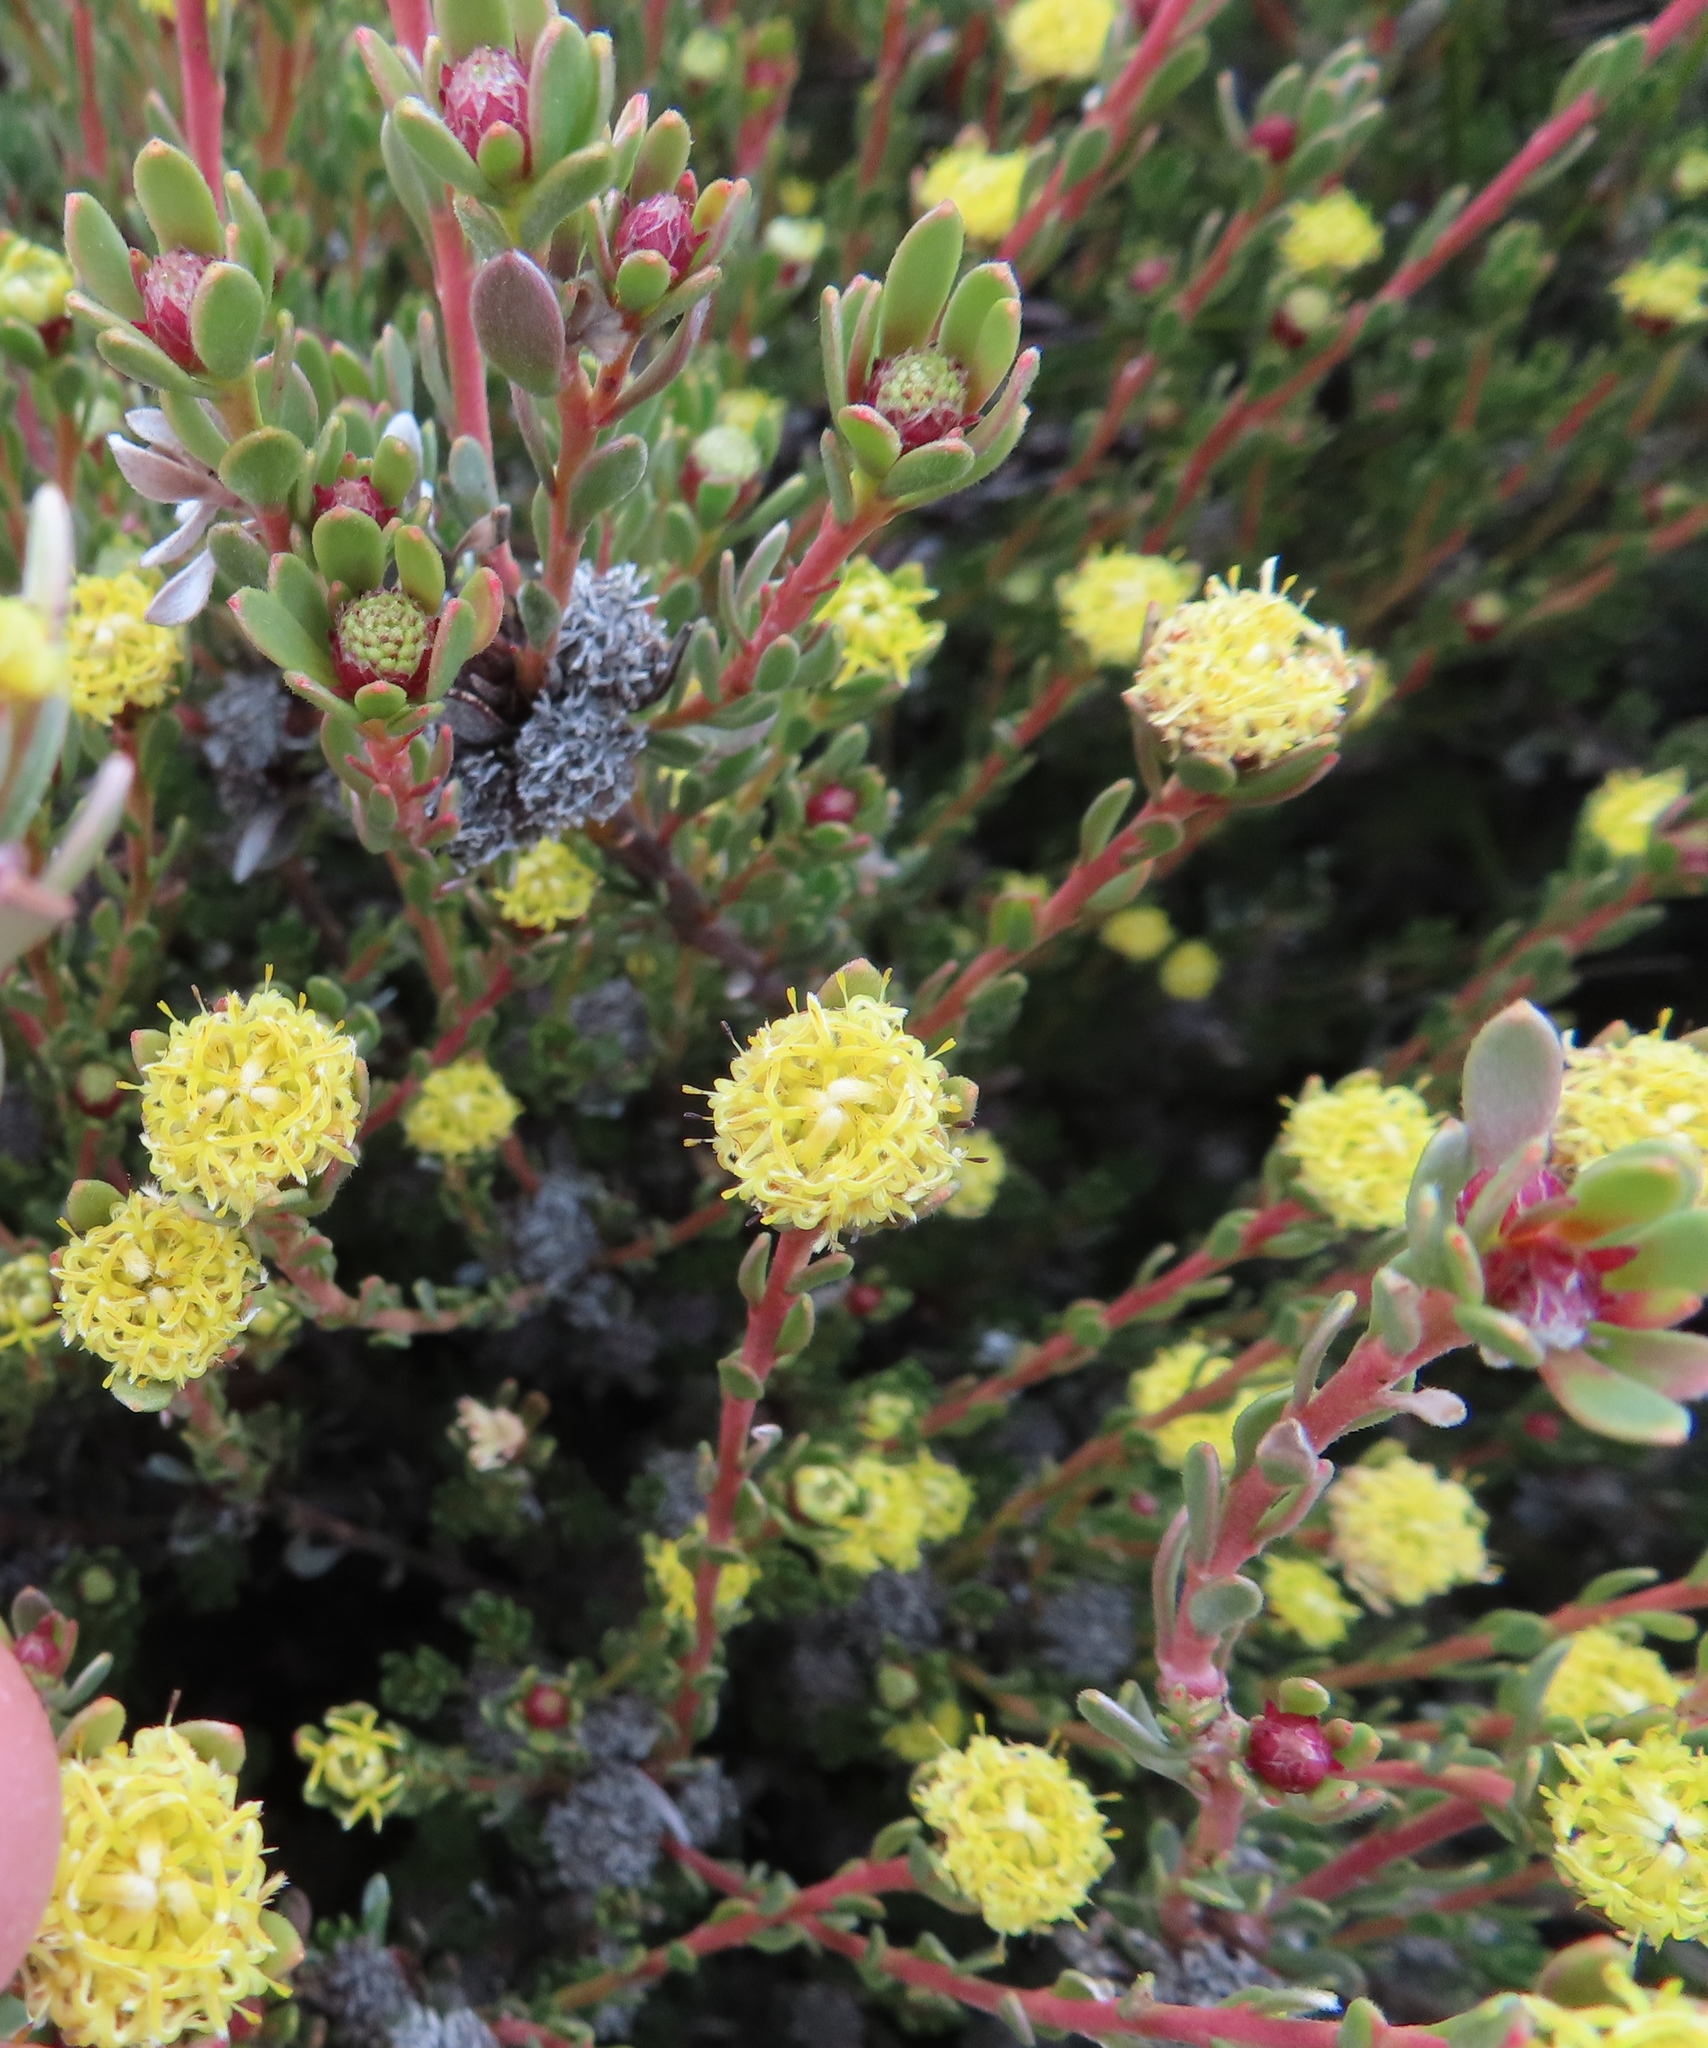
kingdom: Plantae
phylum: Tracheophyta
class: Magnoliopsida
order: Proteales
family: Proteaceae
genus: Leucadendron
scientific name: Leucadendron nitidum
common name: Bokkeveld conebush
